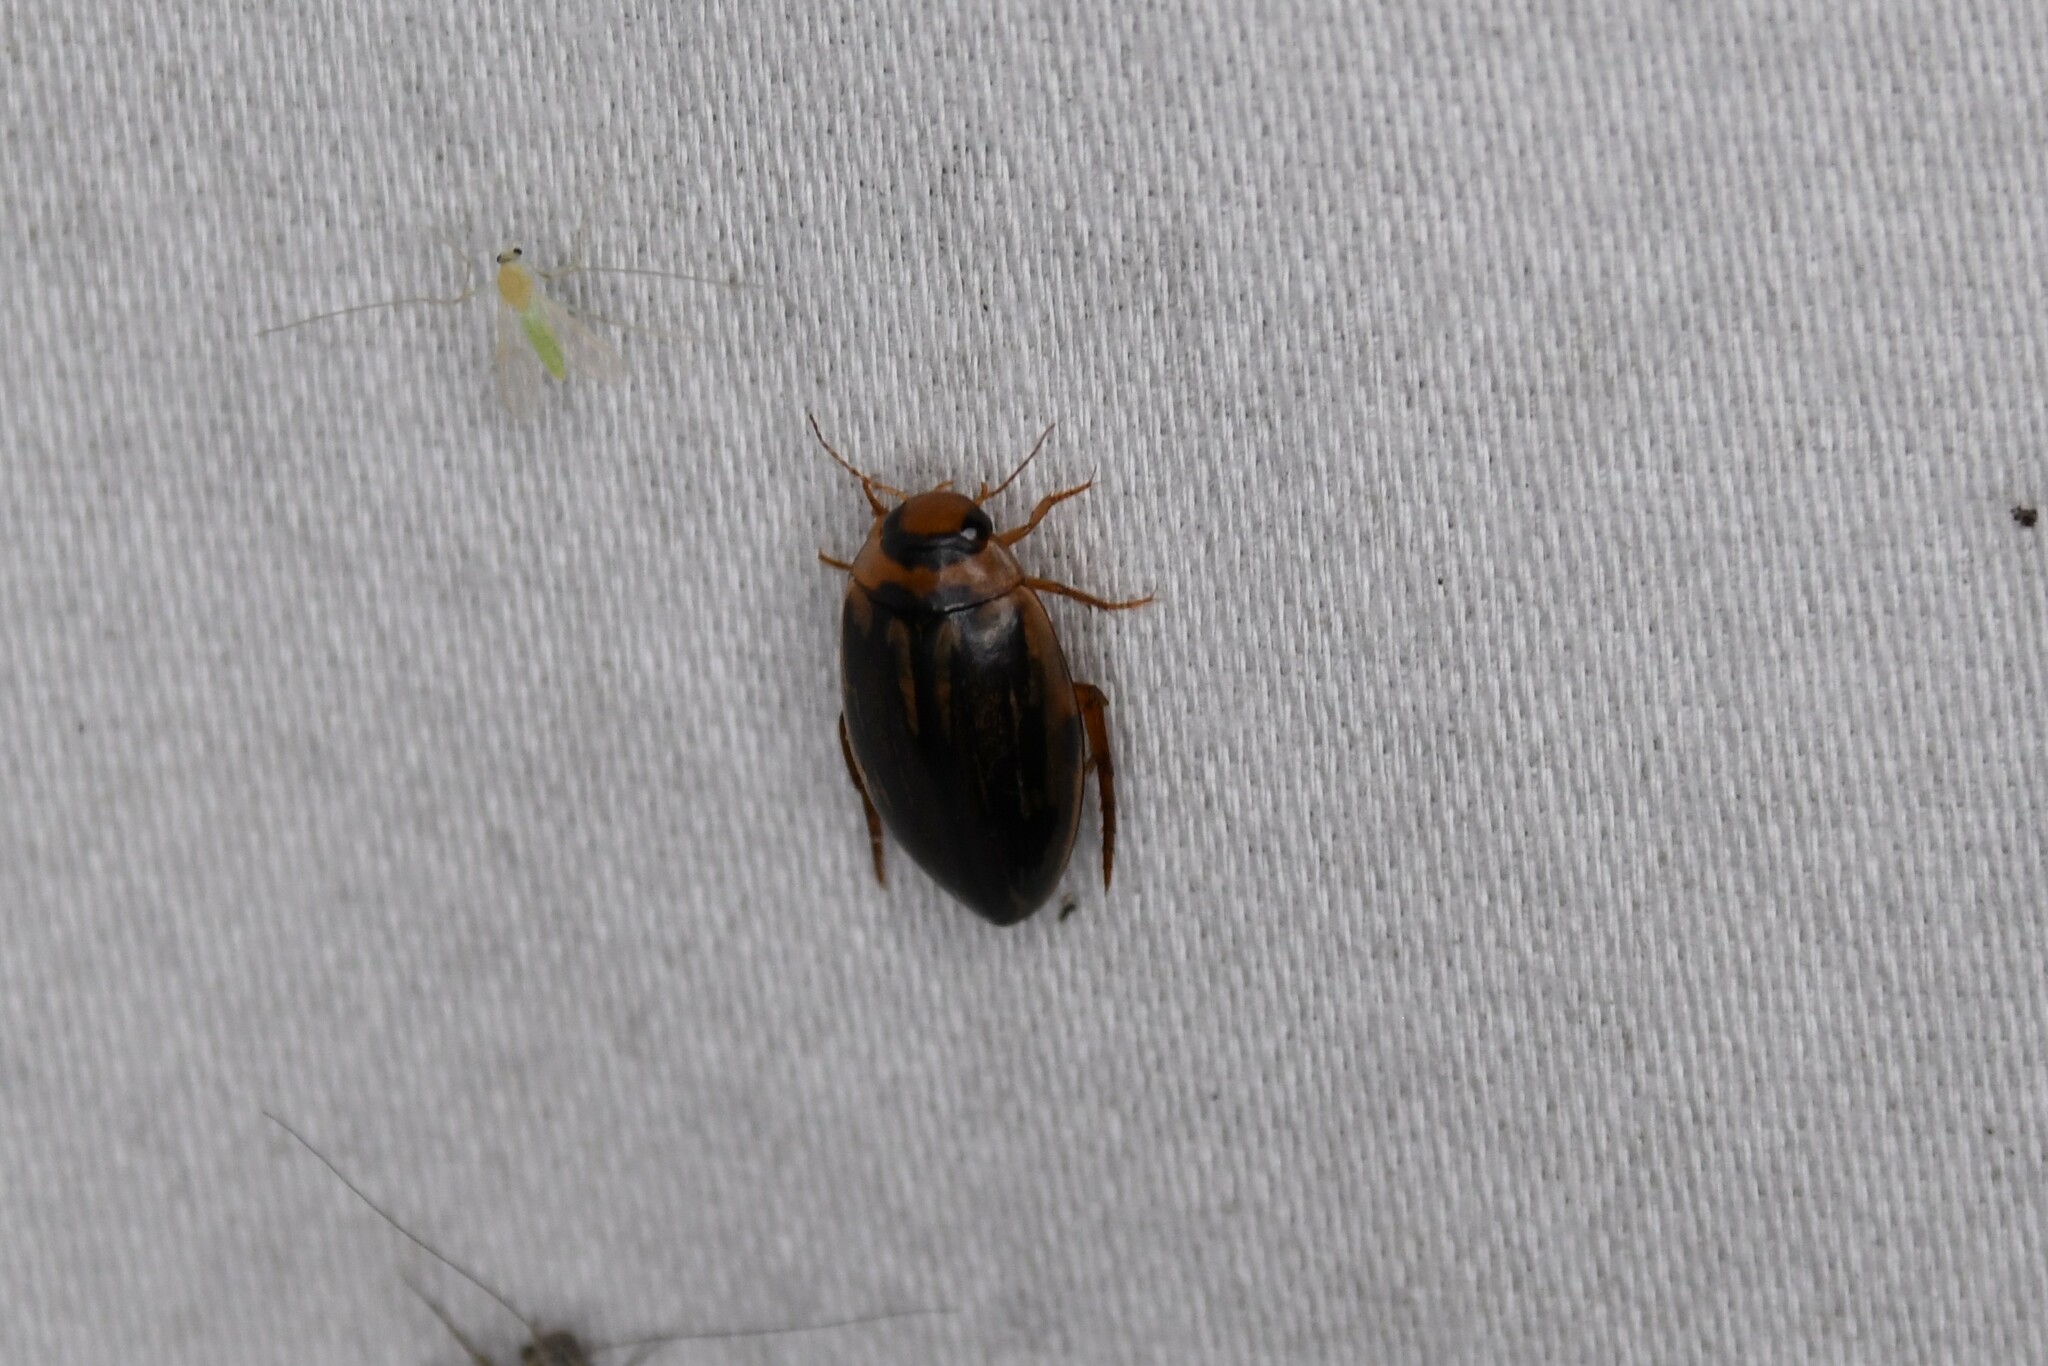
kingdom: Animalia
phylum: Arthropoda
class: Insecta
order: Coleoptera
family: Dytiscidae
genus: Coptotomus
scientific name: Coptotomus longulus
